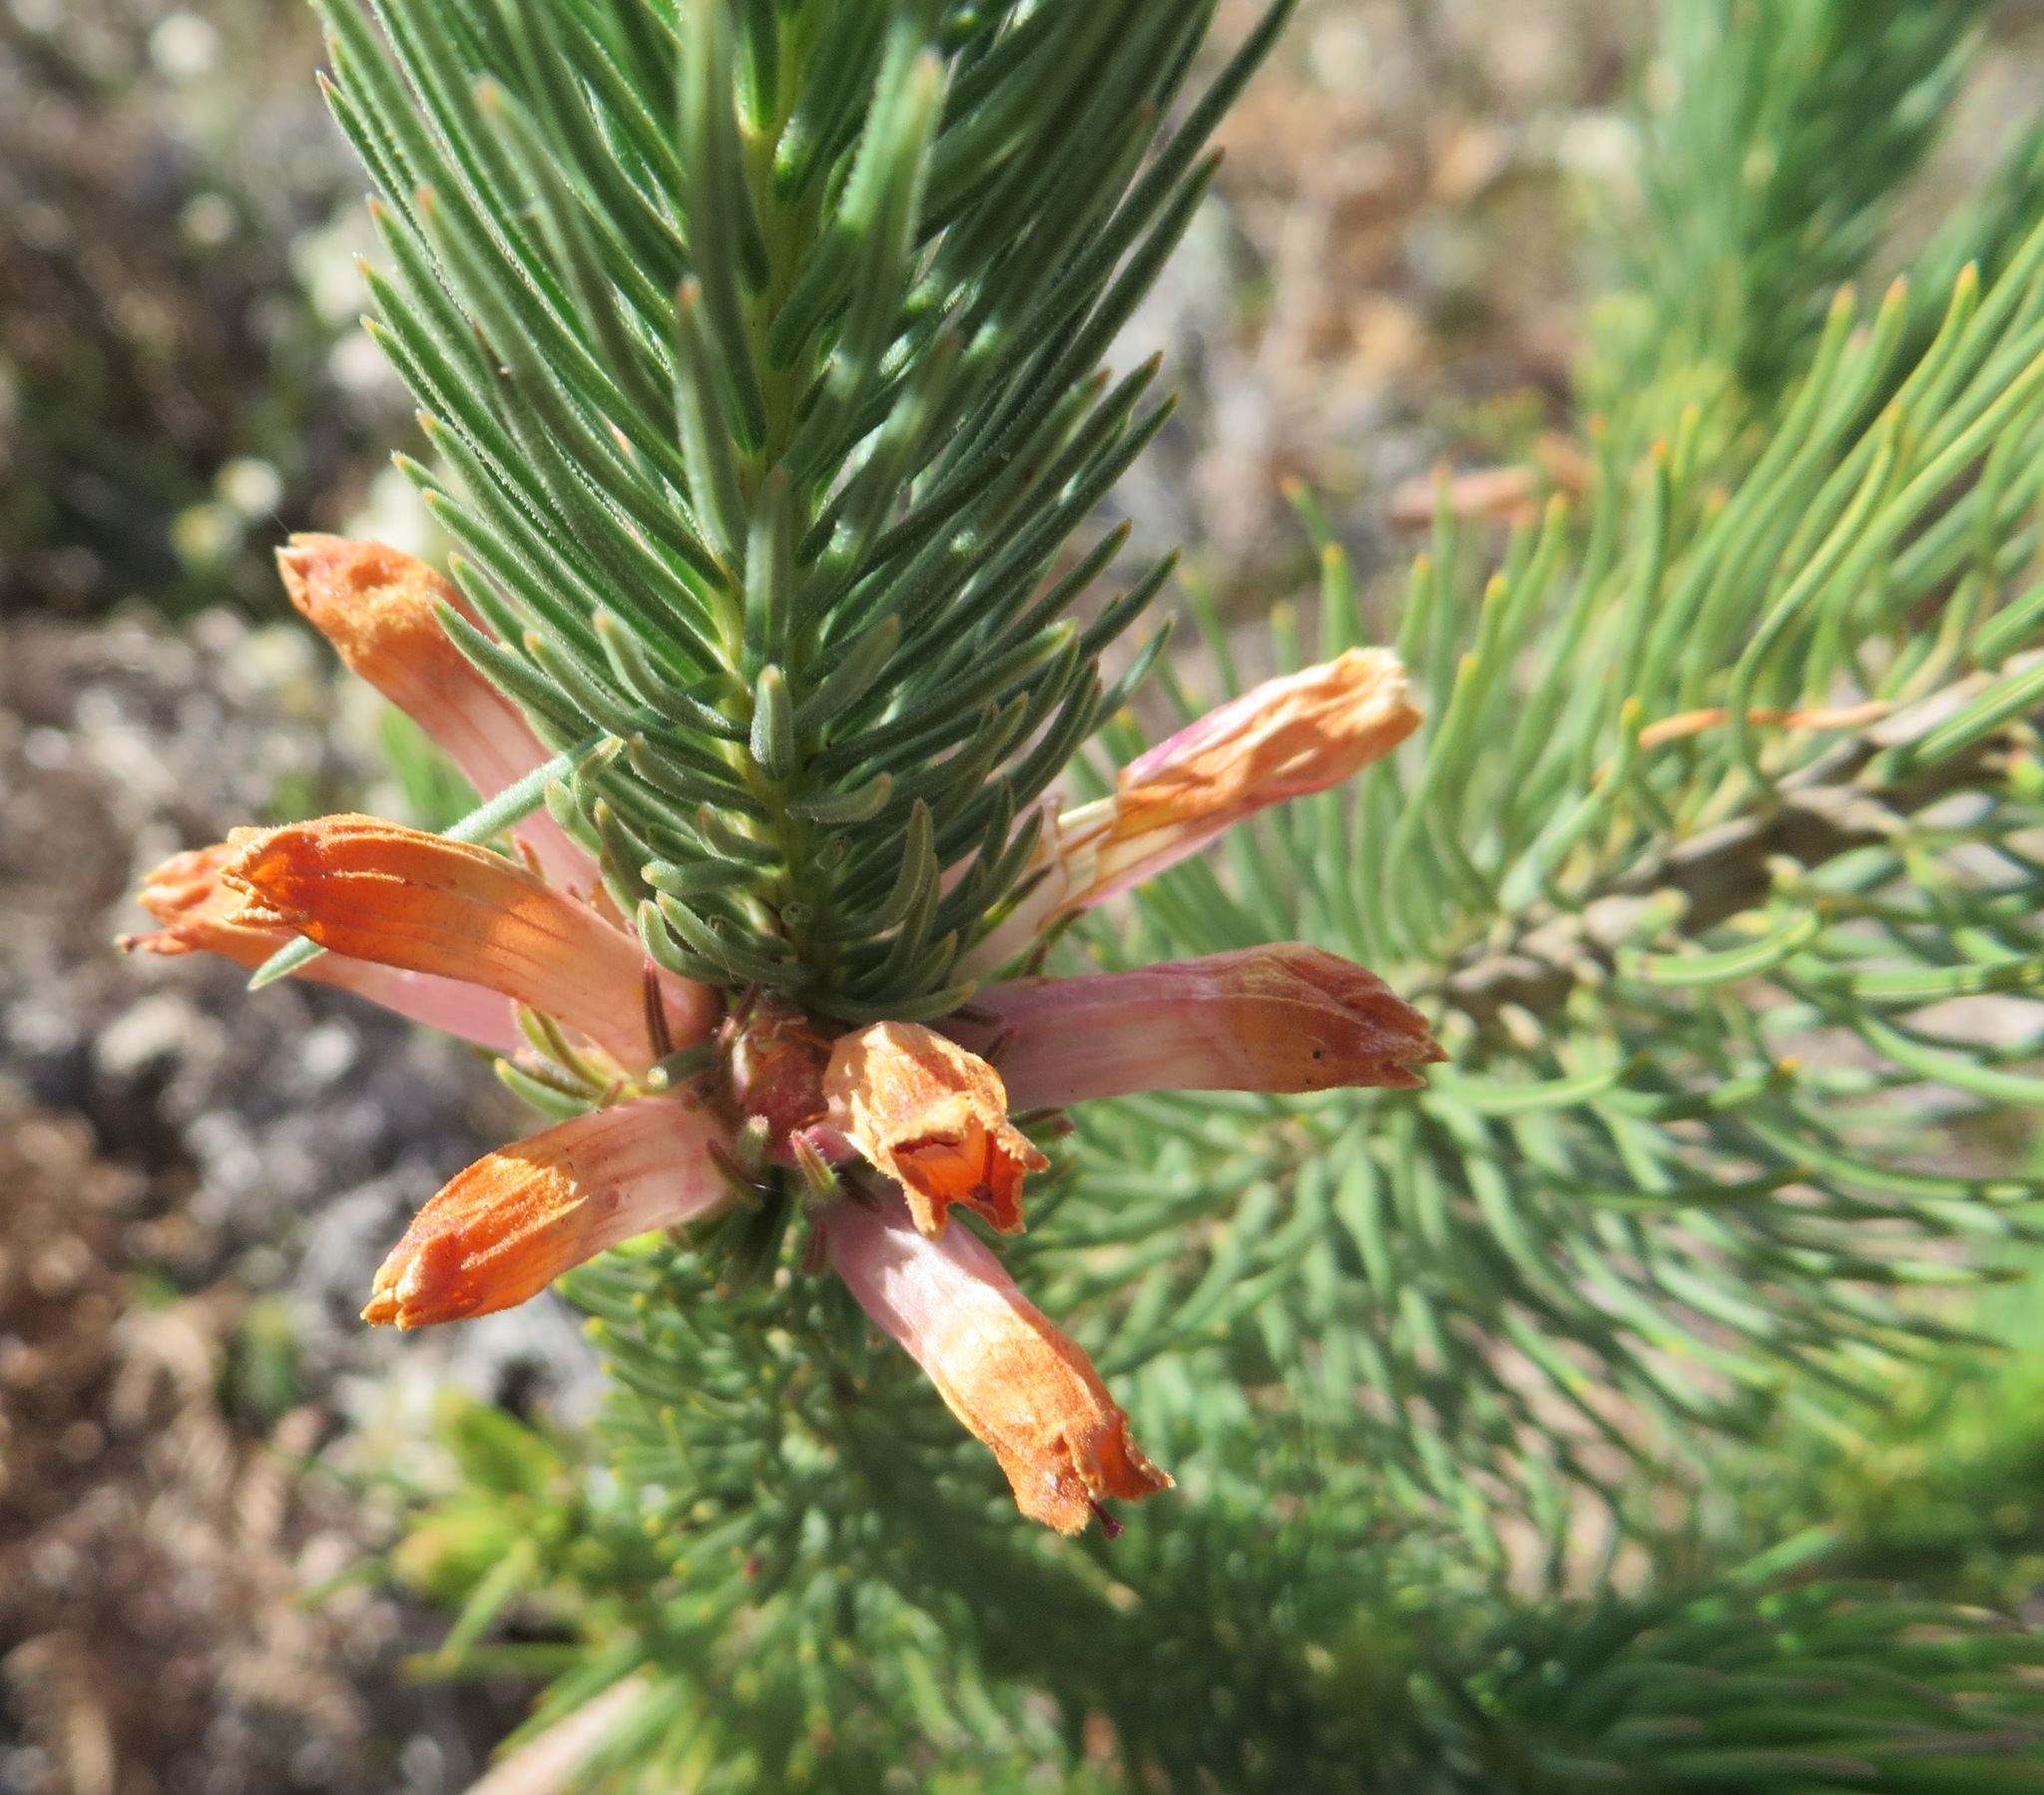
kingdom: Plantae
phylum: Tracheophyta
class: Magnoliopsida
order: Ericales
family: Ericaceae
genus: Erica
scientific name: Erica viscaria
